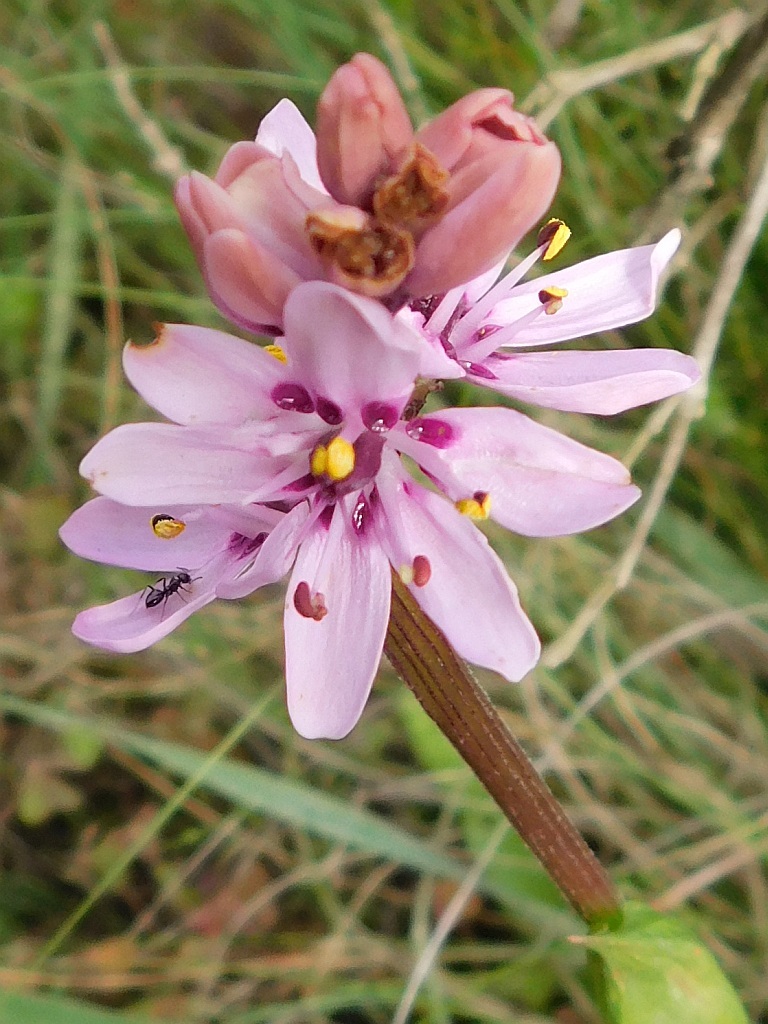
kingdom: Plantae
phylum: Tracheophyta
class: Liliopsida
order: Liliales
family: Colchicaceae
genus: Wurmbea
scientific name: Wurmbea punctata
